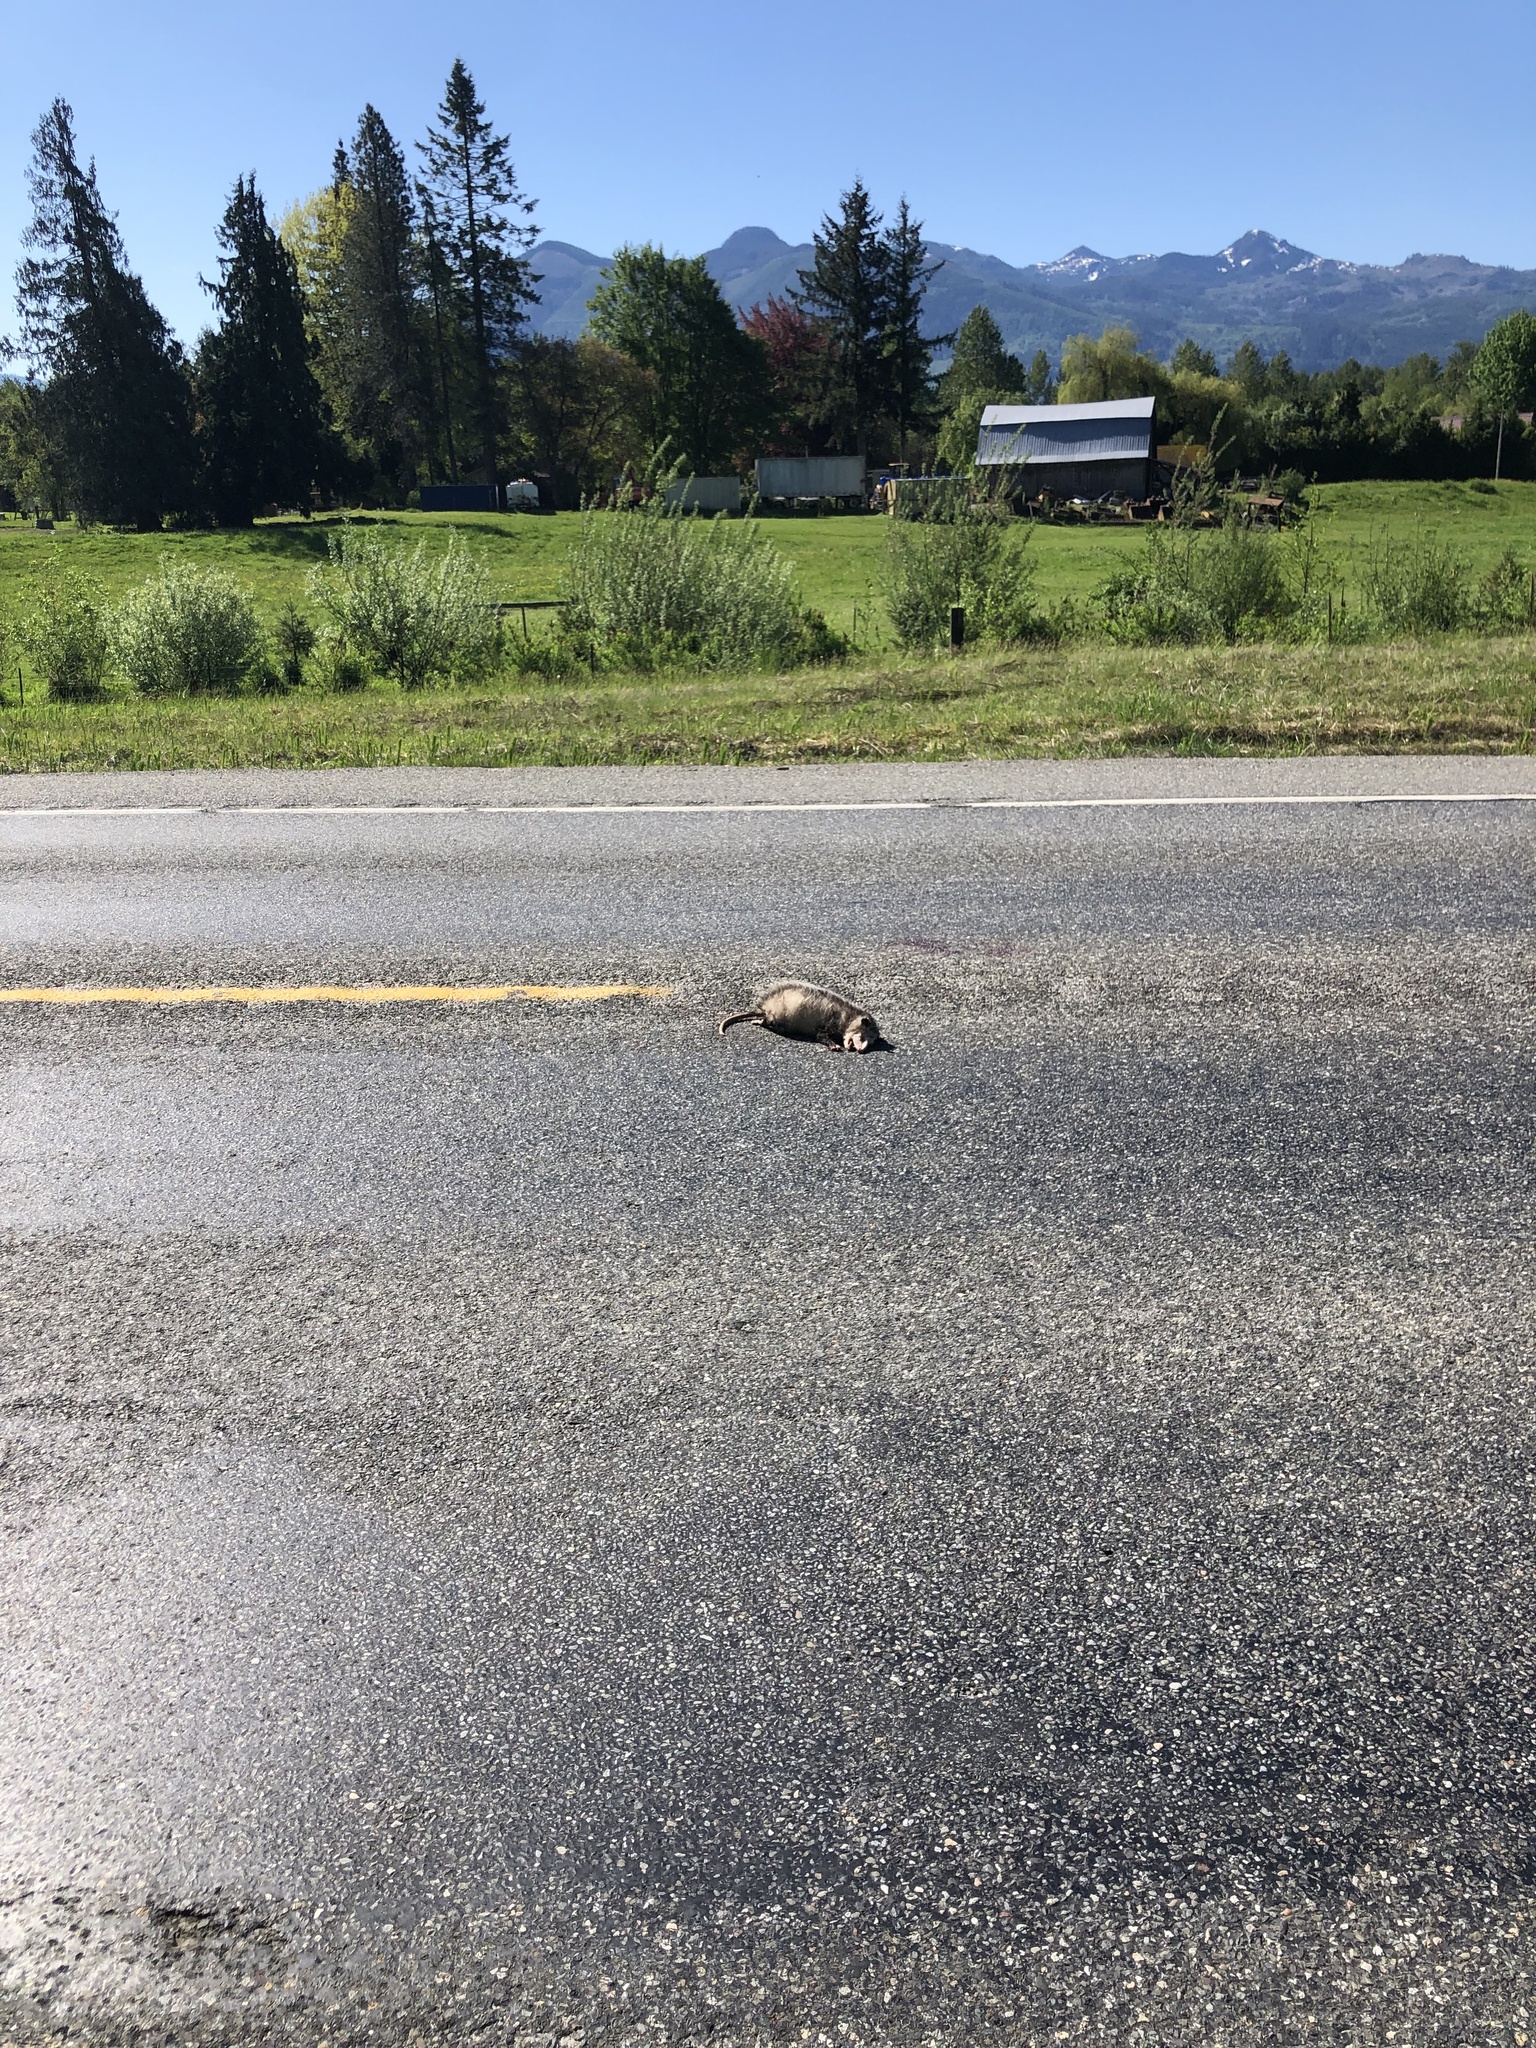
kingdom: Animalia
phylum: Chordata
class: Mammalia
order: Didelphimorphia
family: Didelphidae
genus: Didelphis
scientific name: Didelphis virginiana
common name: Virginia opossum
